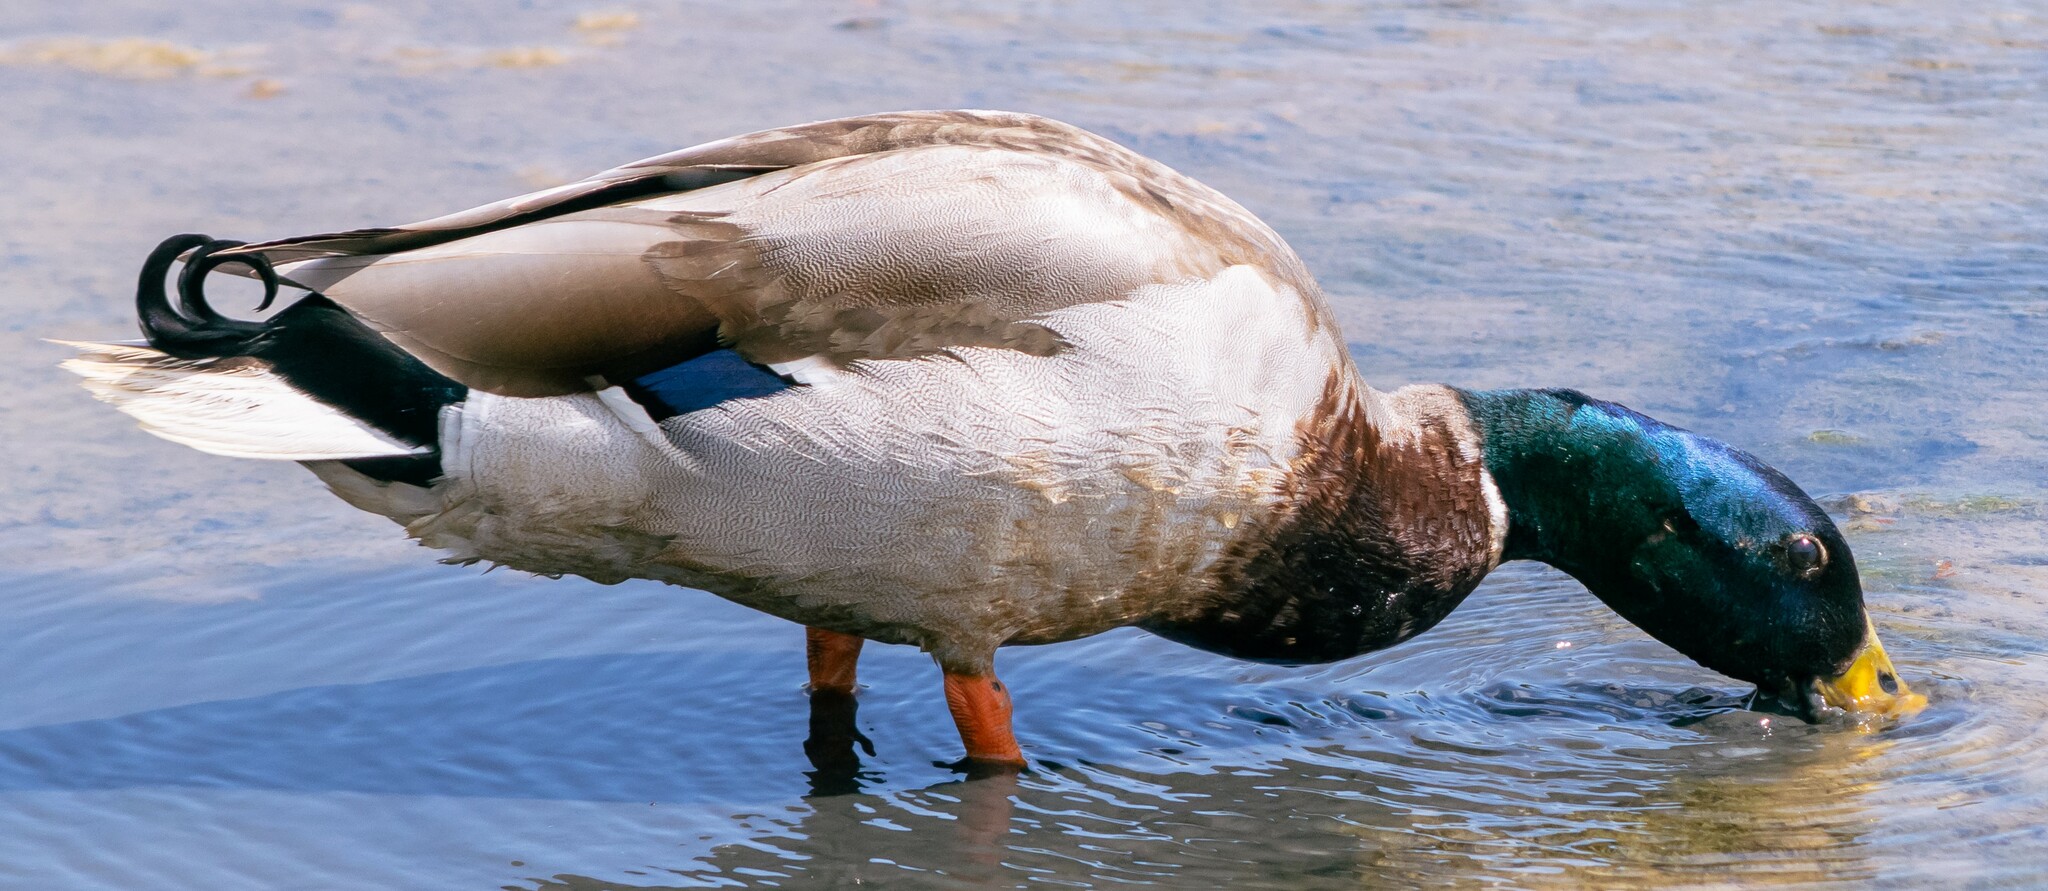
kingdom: Animalia
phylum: Chordata
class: Aves
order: Anseriformes
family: Anatidae
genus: Anas
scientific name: Anas platyrhynchos
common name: Mallard
